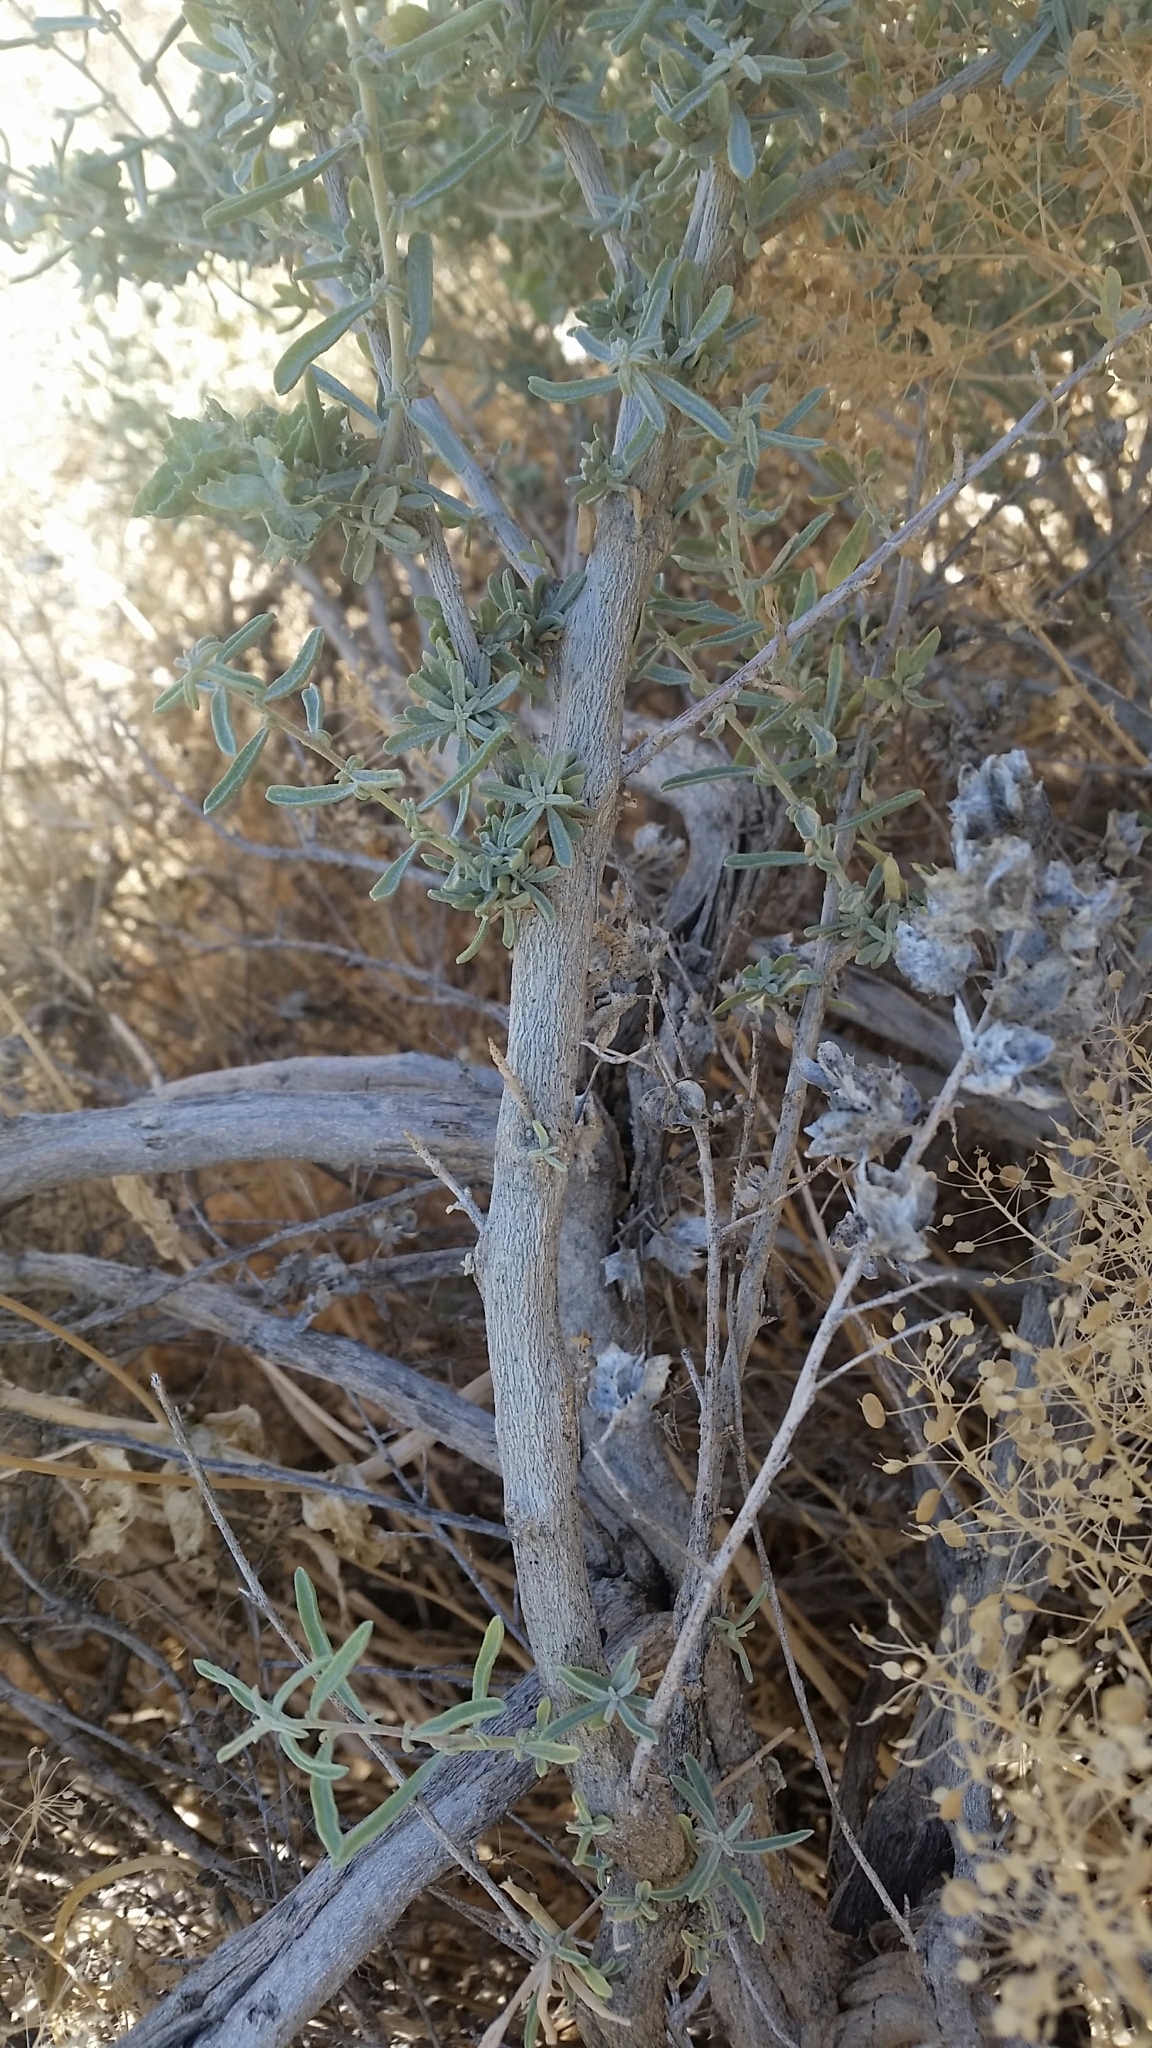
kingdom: Plantae
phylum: Tracheophyta
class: Magnoliopsida
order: Caryophyllales
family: Amaranthaceae
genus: Atriplex
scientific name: Atriplex canescens
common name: Four-wing saltbush
